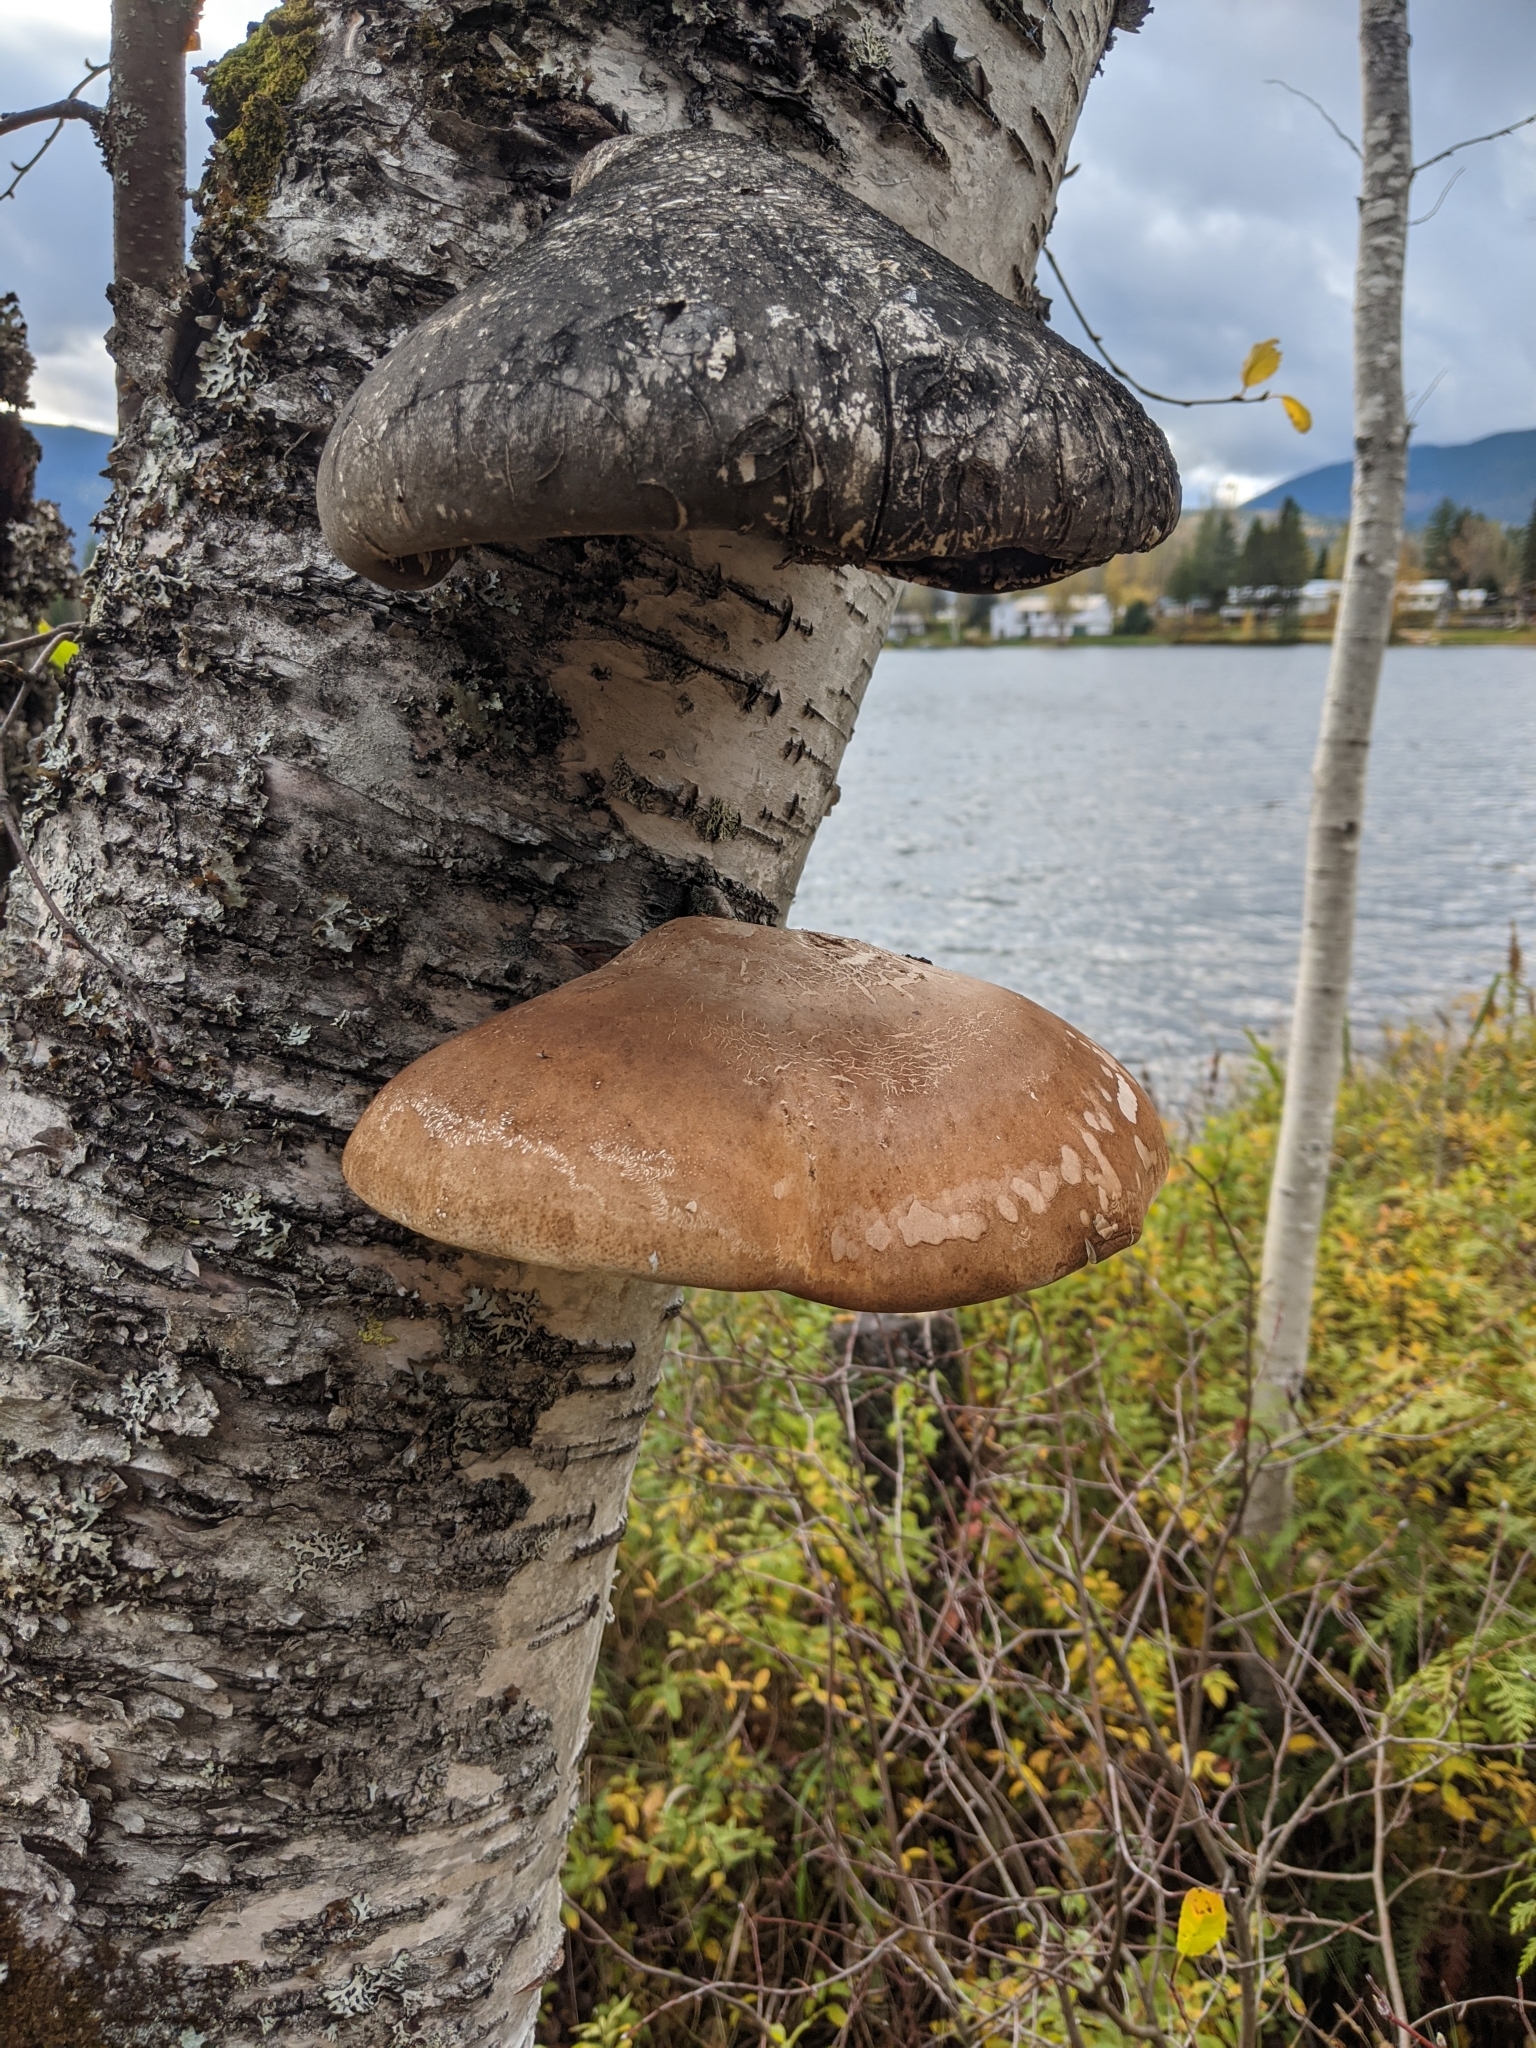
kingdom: Fungi
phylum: Basidiomycota
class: Agaricomycetes
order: Polyporales
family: Fomitopsidaceae
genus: Fomitopsis
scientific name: Fomitopsis betulina
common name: Birch polypore
